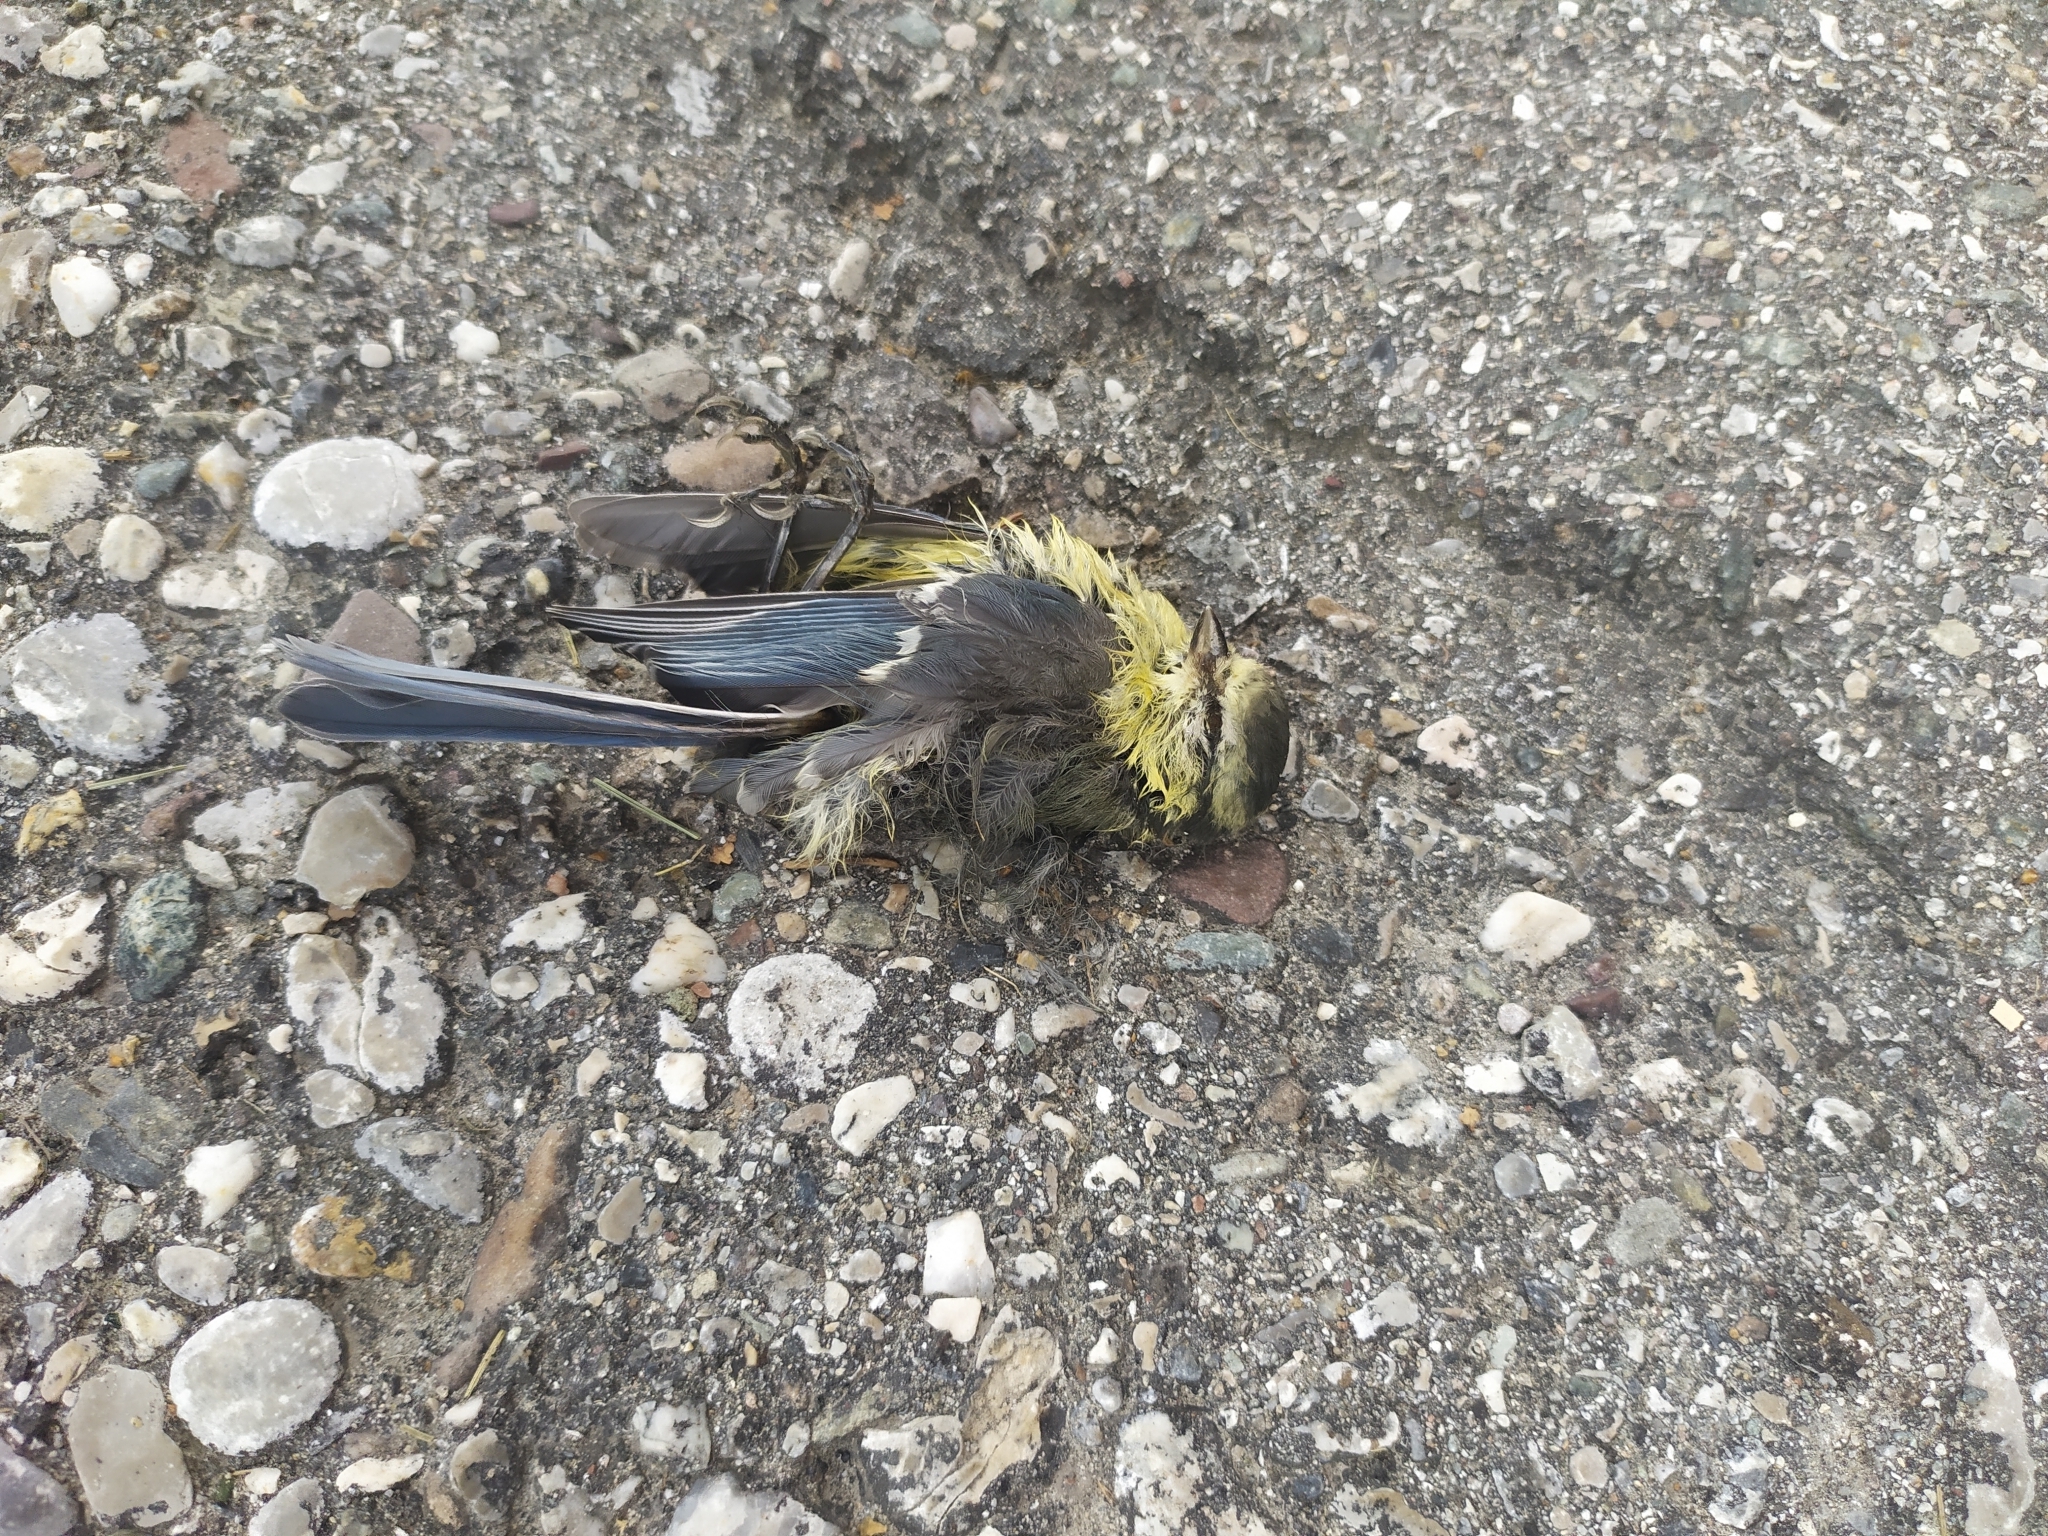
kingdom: Animalia
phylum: Chordata
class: Aves
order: Passeriformes
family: Paridae
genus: Cyanistes
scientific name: Cyanistes caeruleus
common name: Eurasian blue tit
